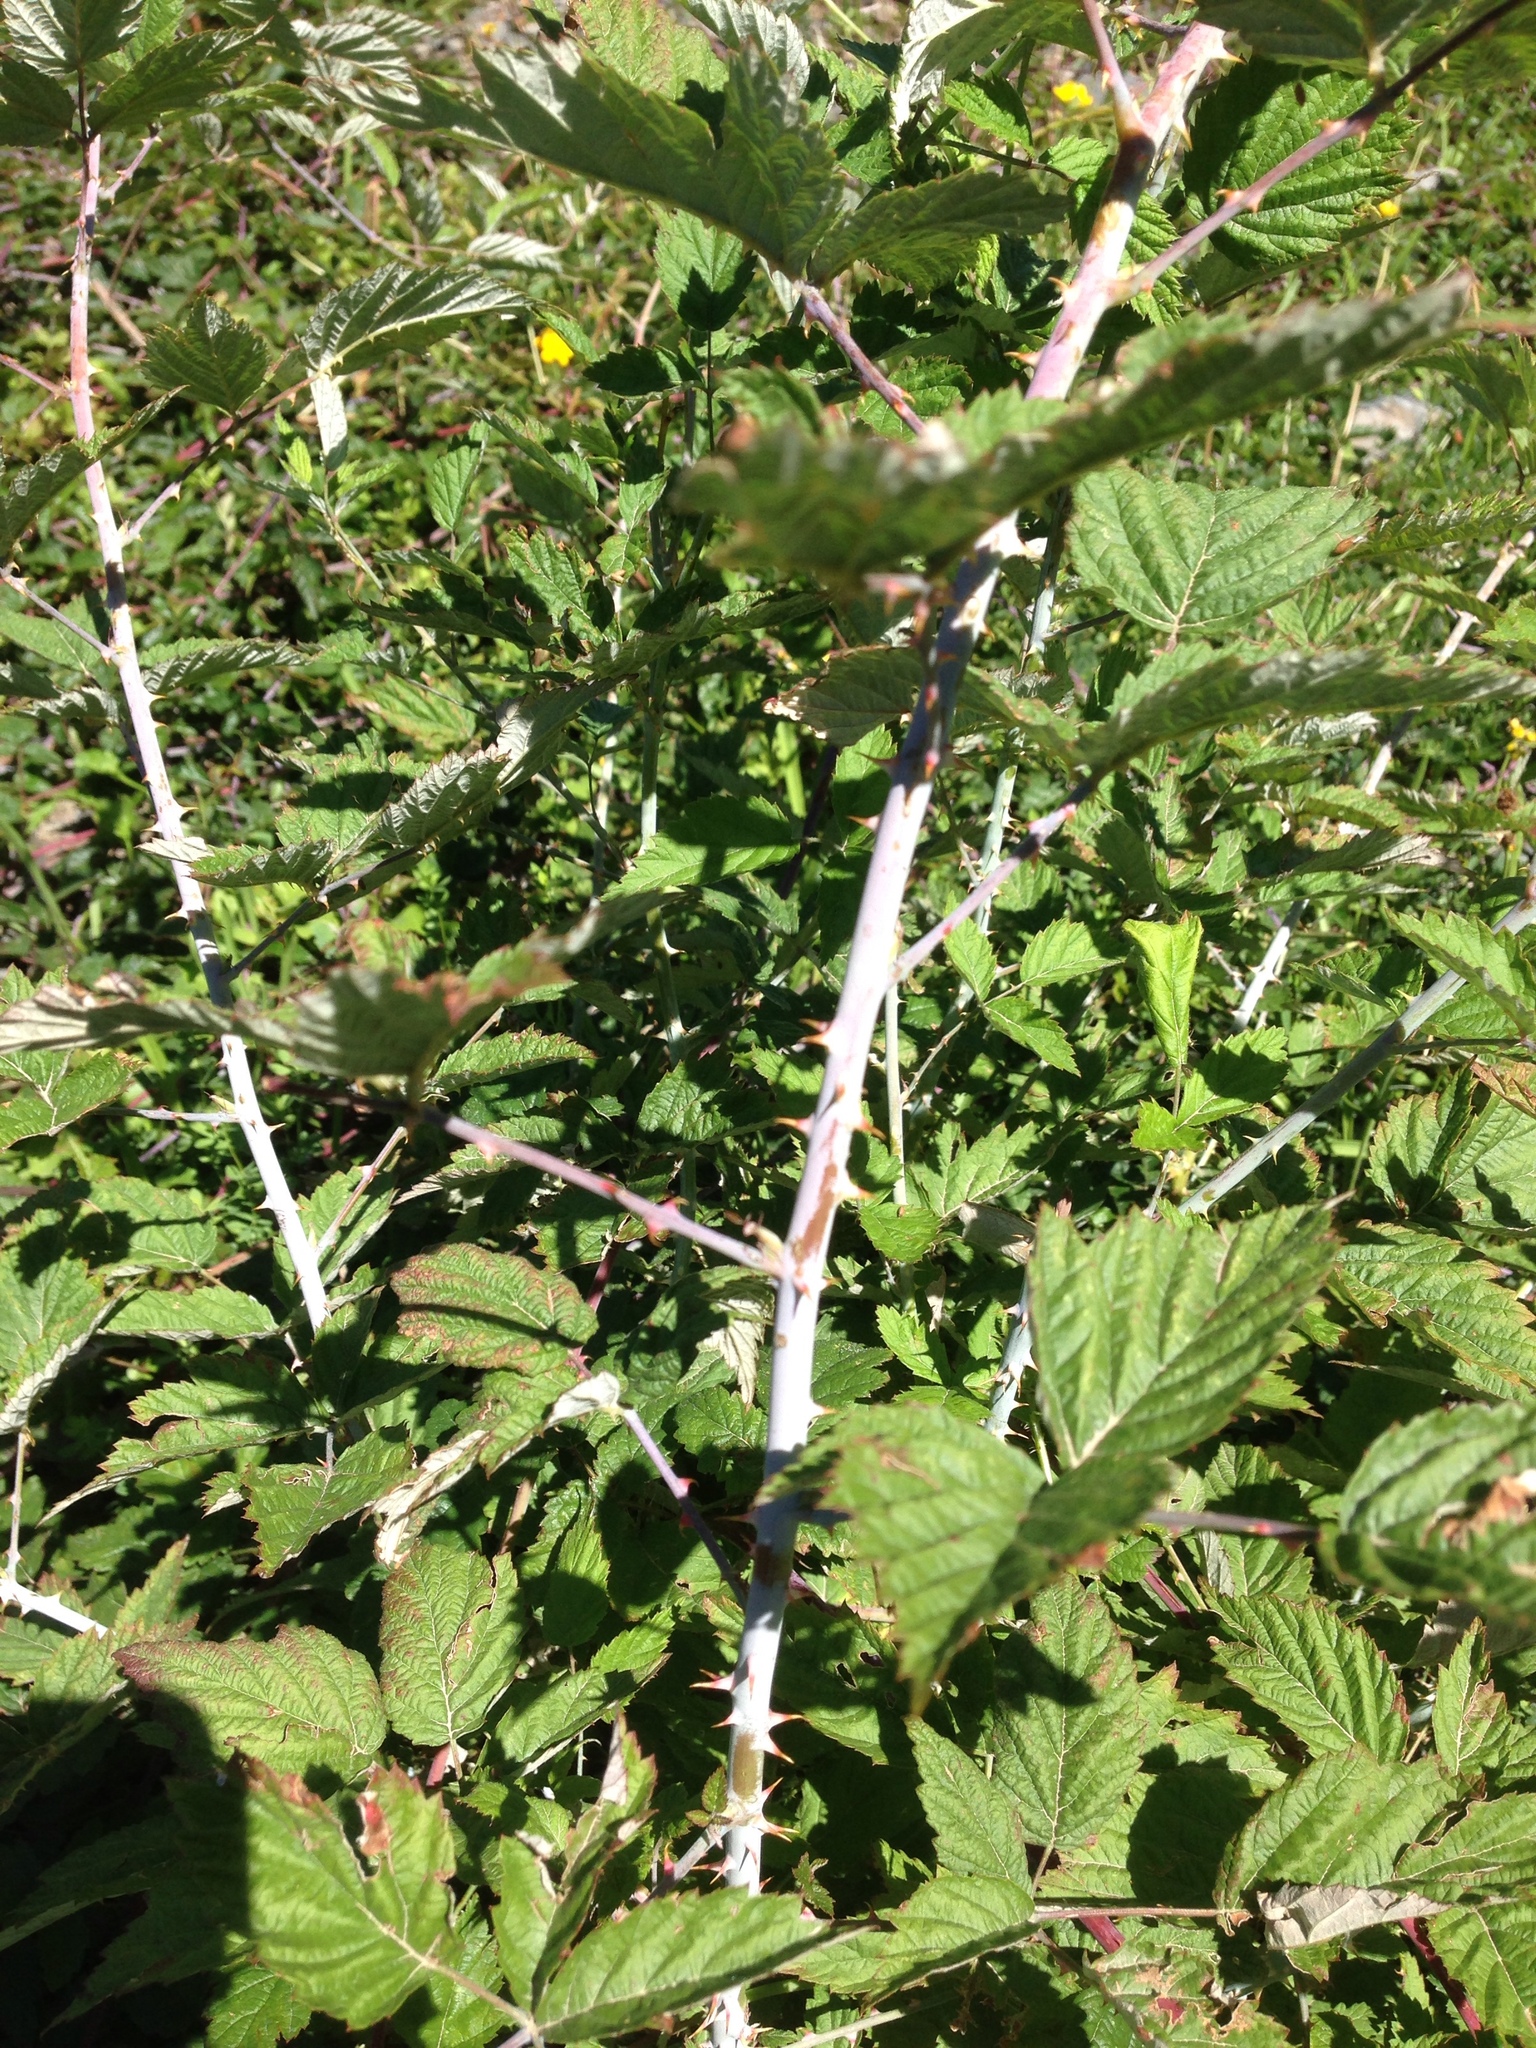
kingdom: Plantae
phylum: Tracheophyta
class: Magnoliopsida
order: Rosales
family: Rosaceae
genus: Rubus
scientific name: Rubus leucodermis
